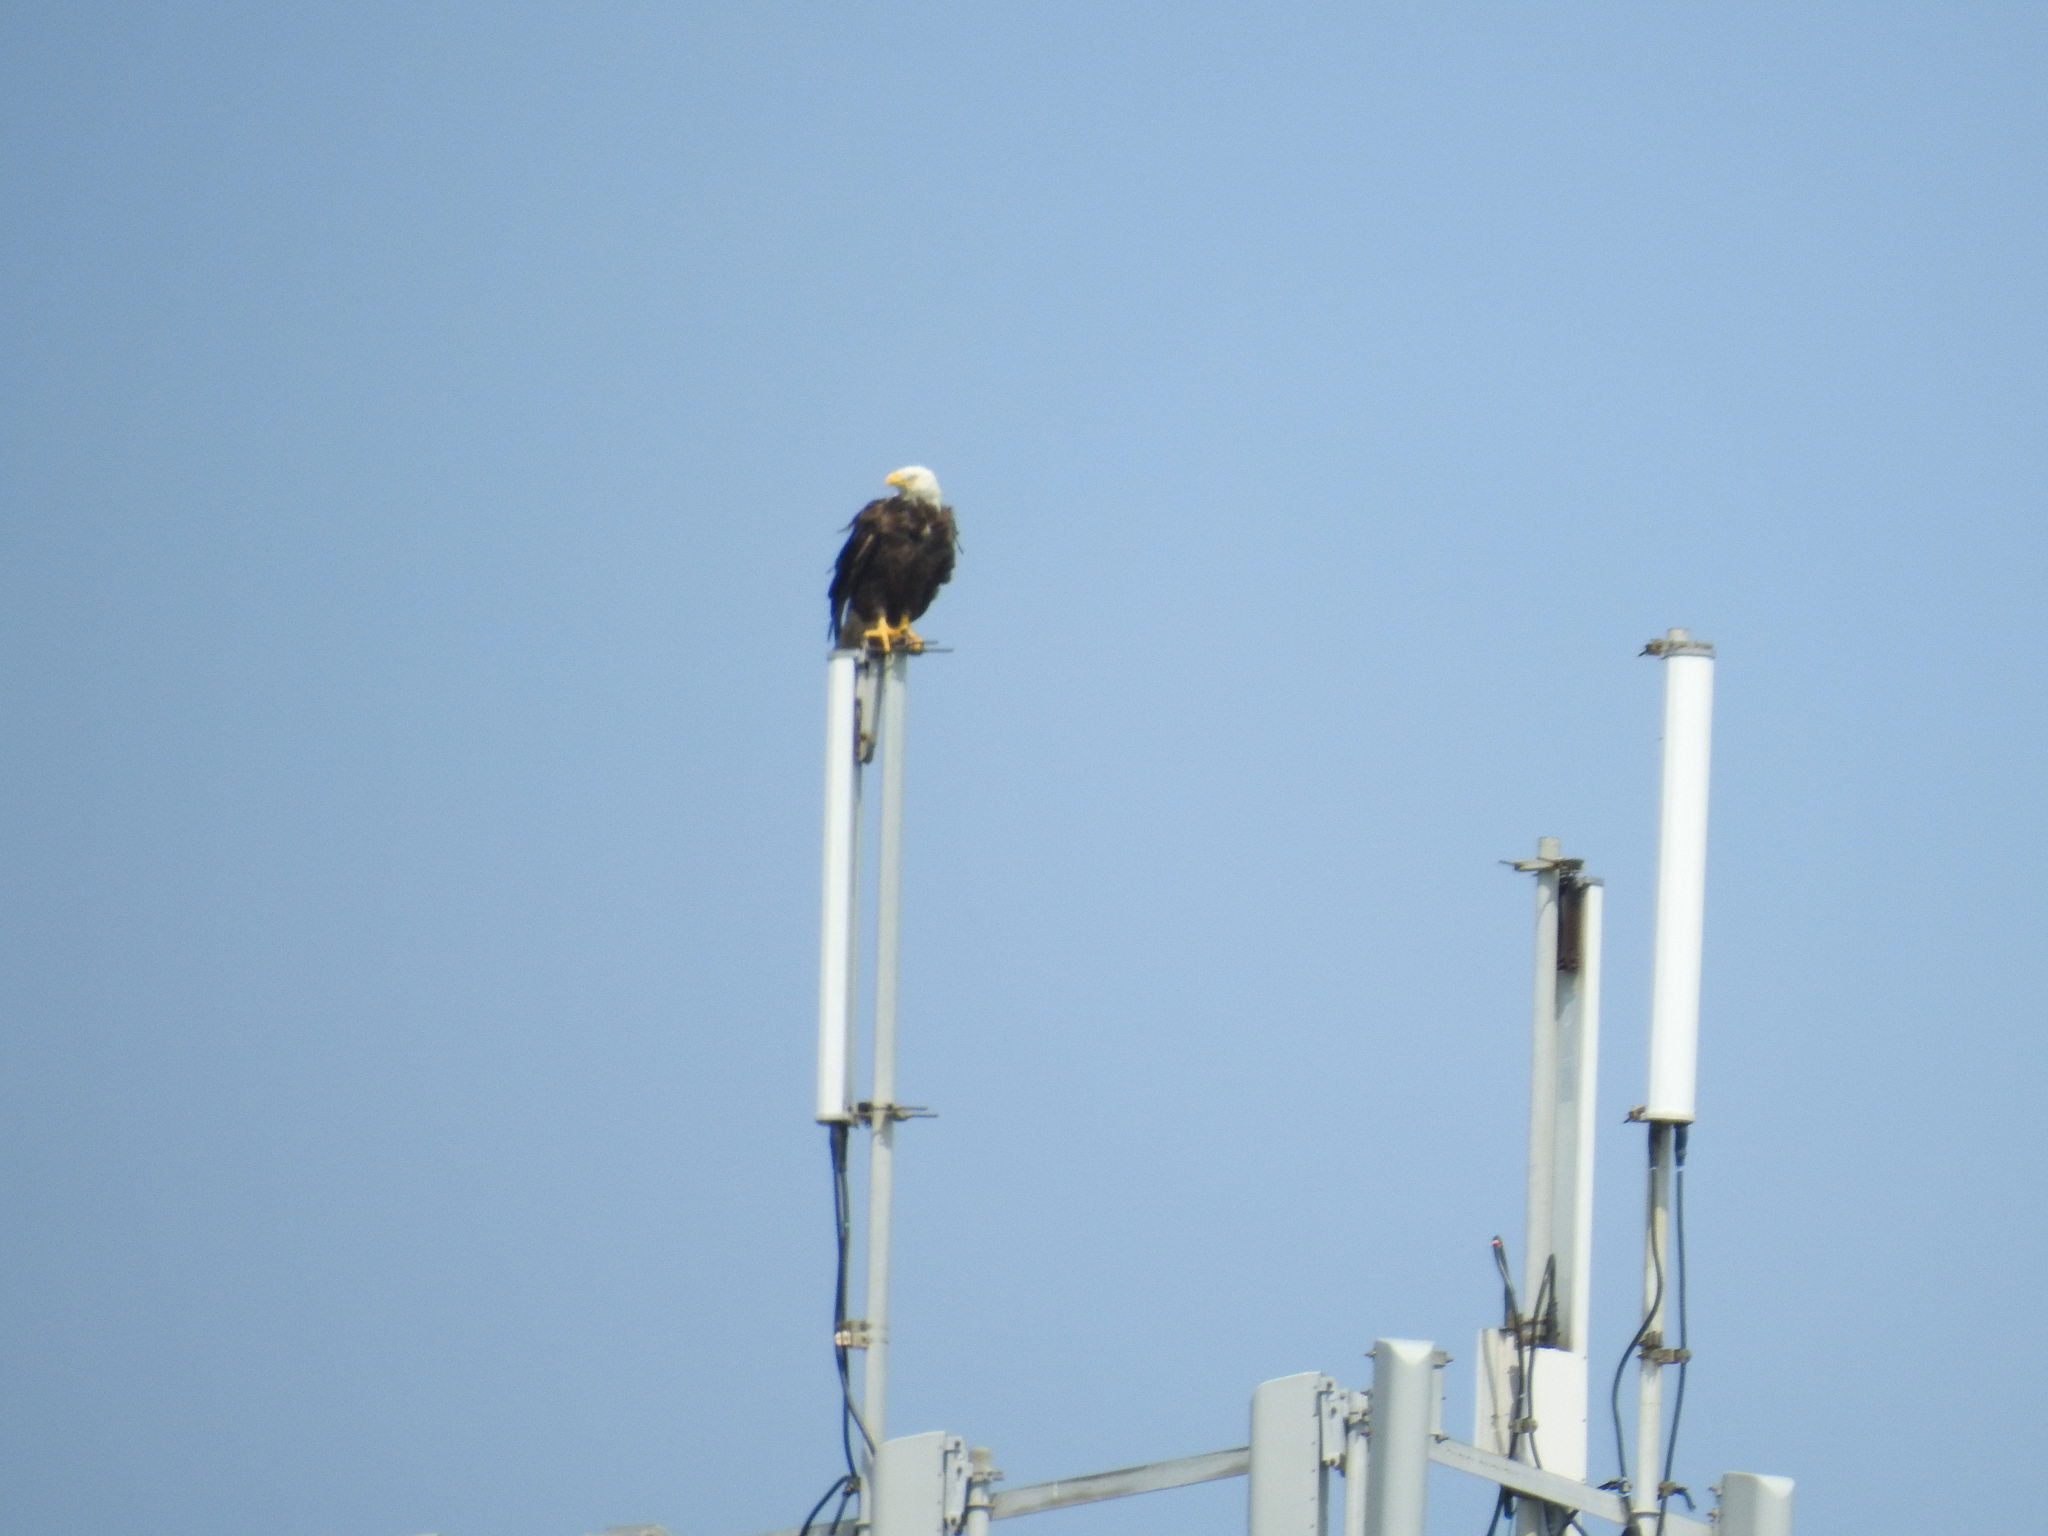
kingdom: Animalia
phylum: Chordata
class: Aves
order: Accipitriformes
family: Accipitridae
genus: Haliaeetus
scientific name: Haliaeetus leucocephalus
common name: Bald eagle
